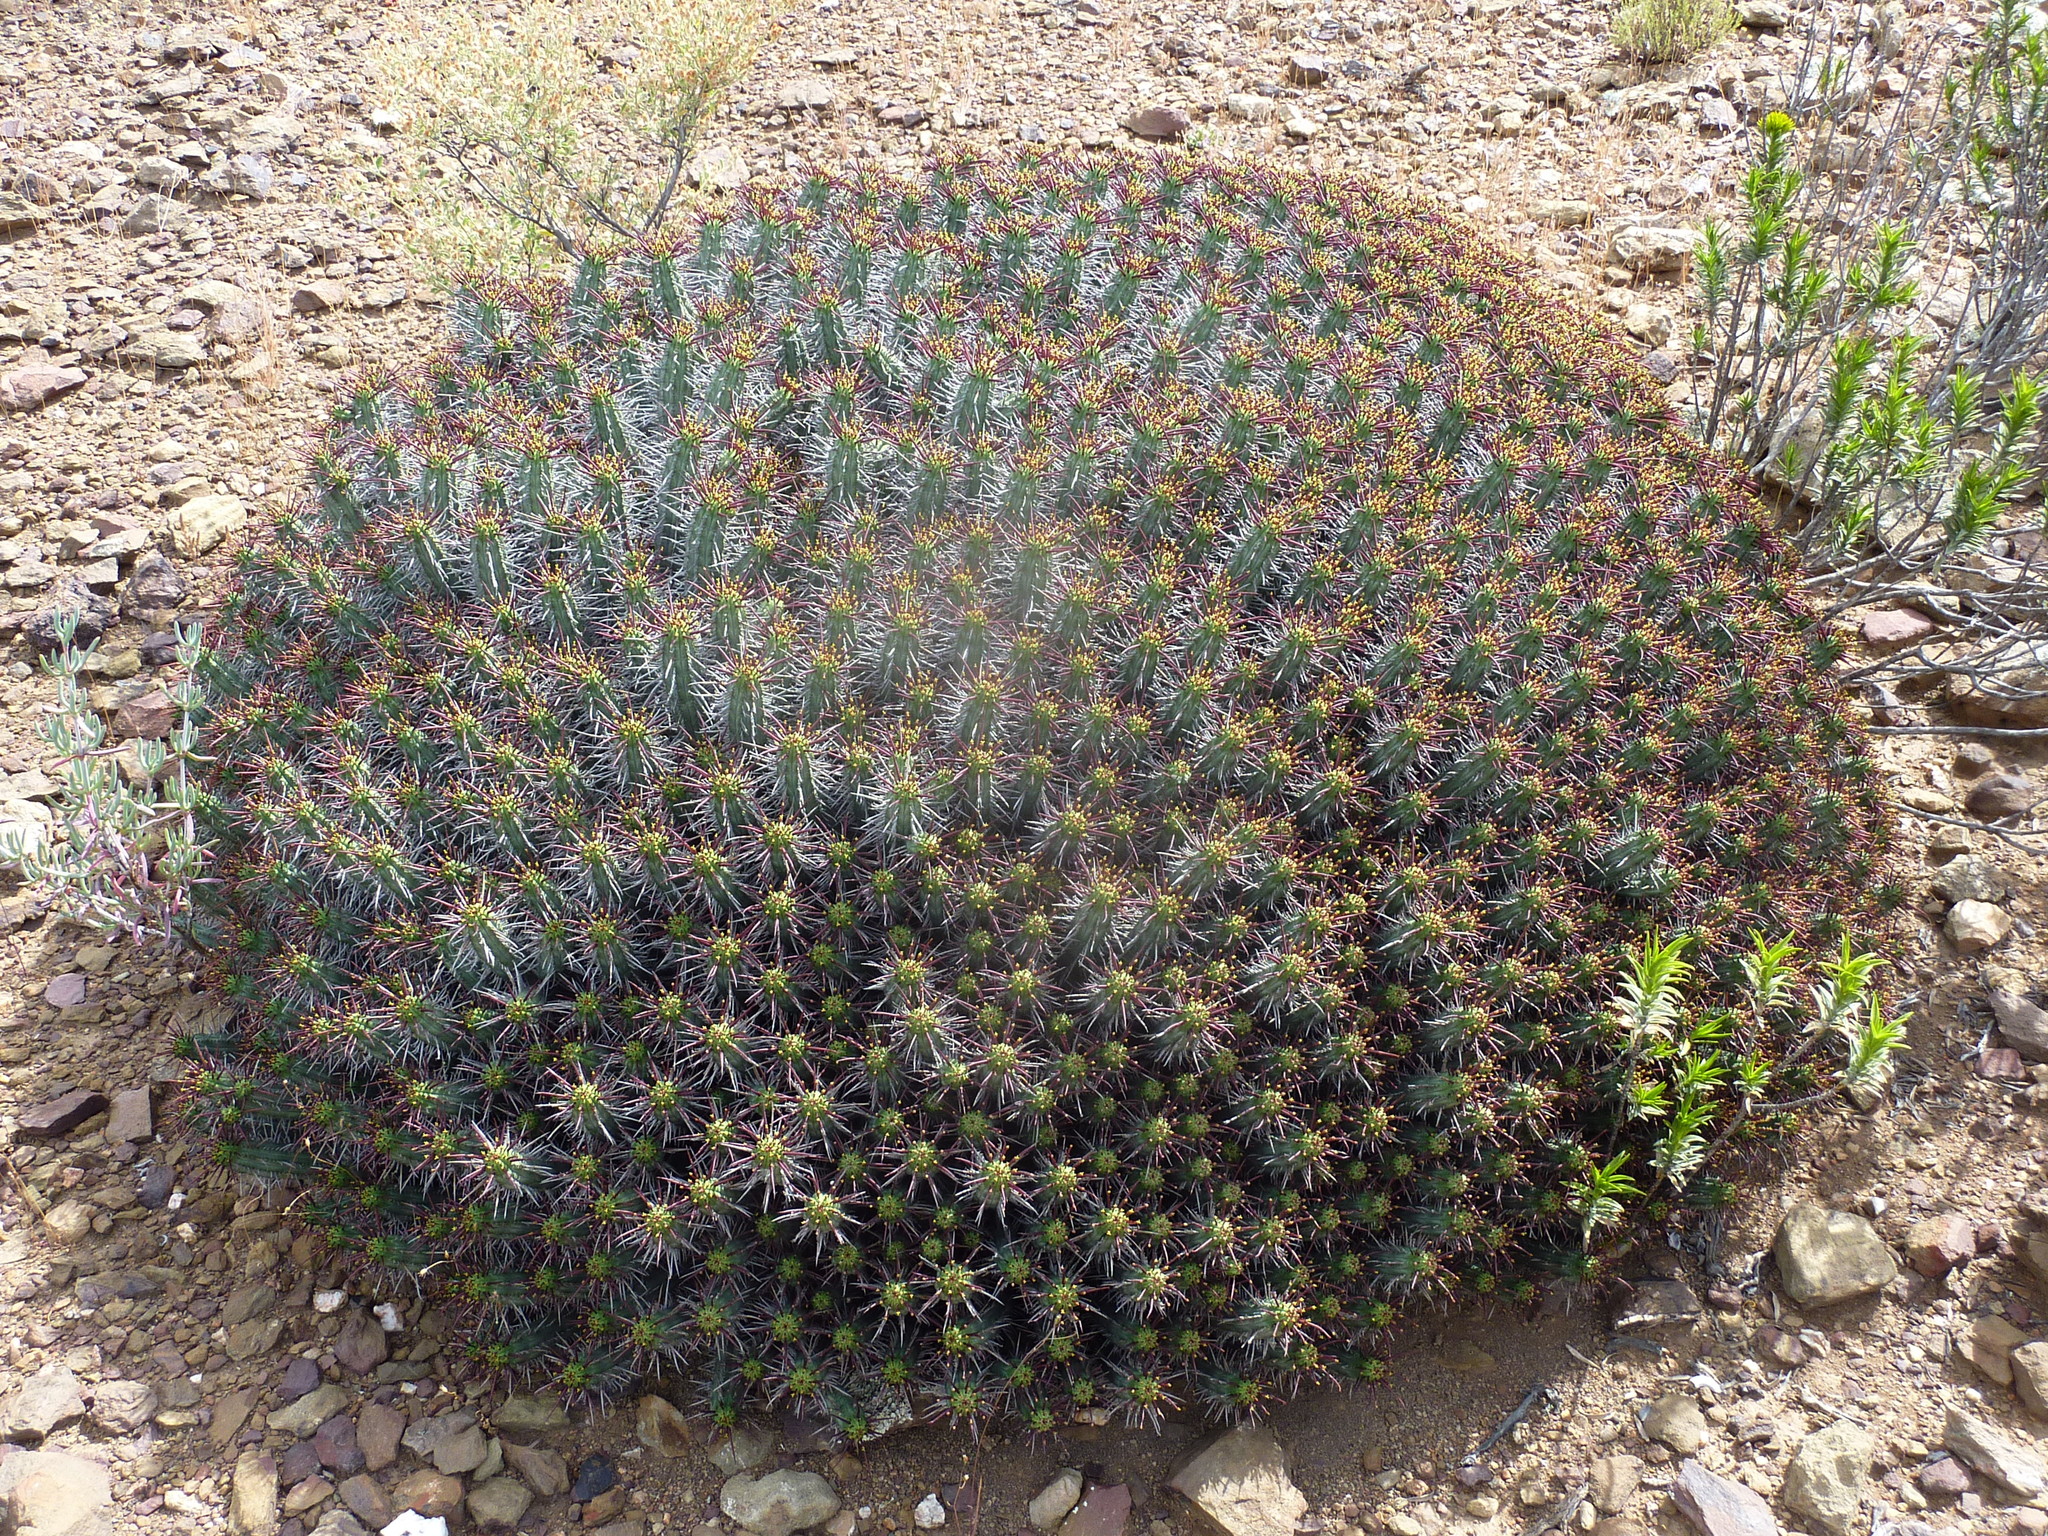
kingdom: Plantae
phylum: Tracheophyta
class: Magnoliopsida
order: Malpighiales
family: Euphorbiaceae
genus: Euphorbia
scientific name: Euphorbia heptagona
